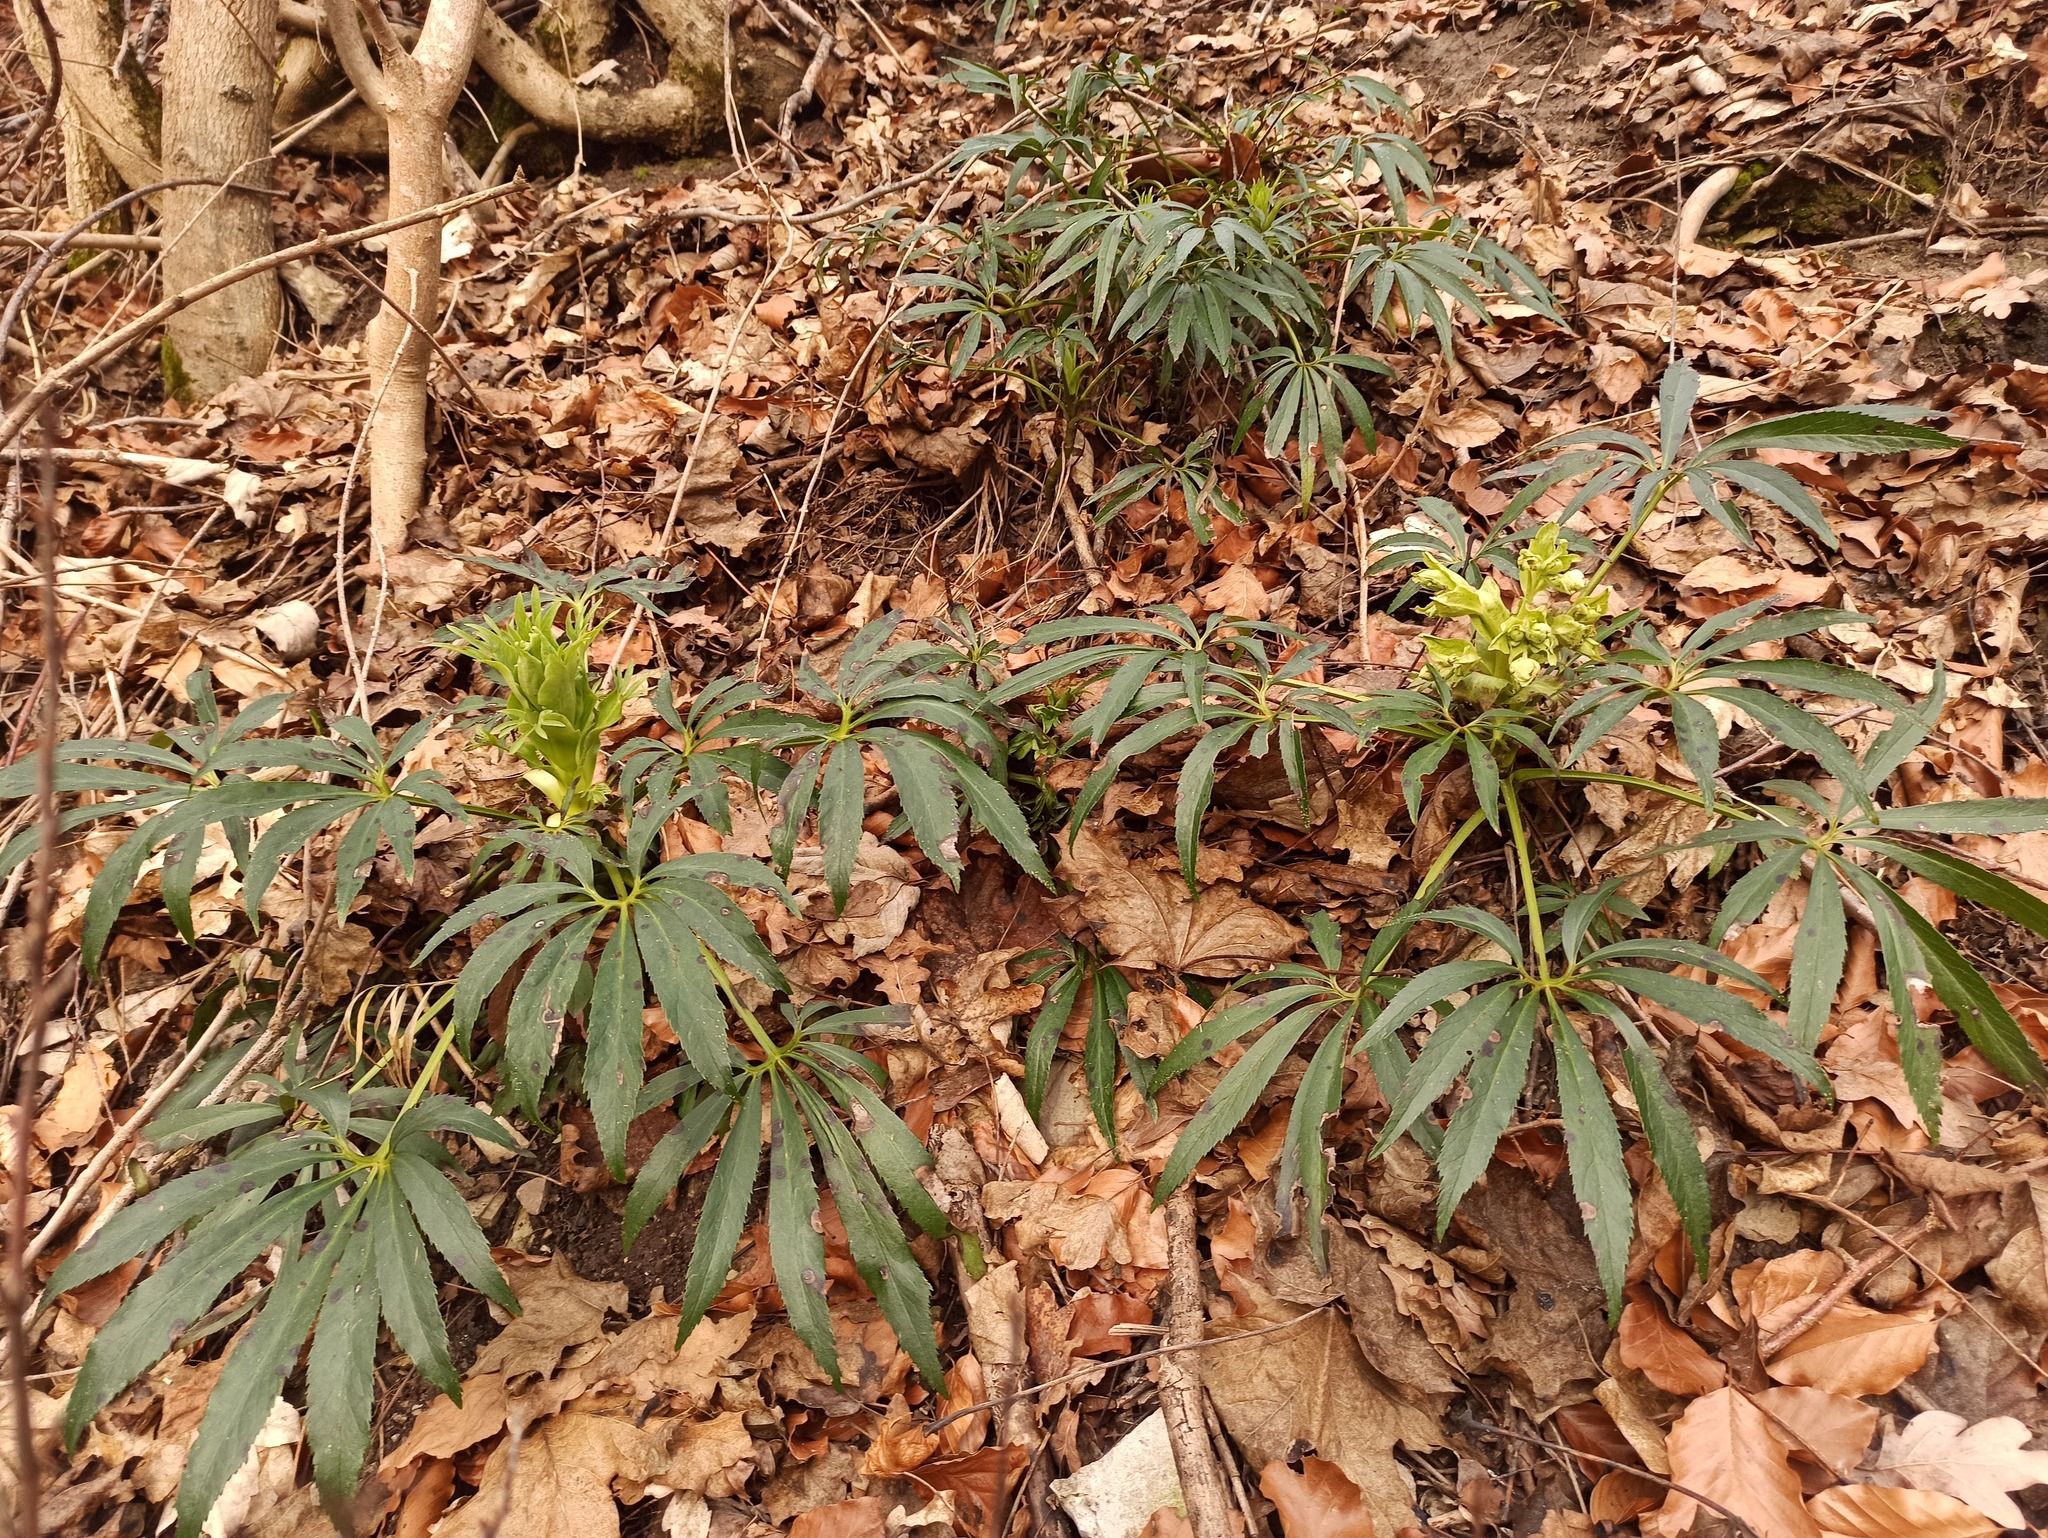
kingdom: Plantae
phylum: Tracheophyta
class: Magnoliopsida
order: Ranunculales
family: Ranunculaceae
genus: Helleborus
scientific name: Helleborus foetidus
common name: Stinking hellebore
